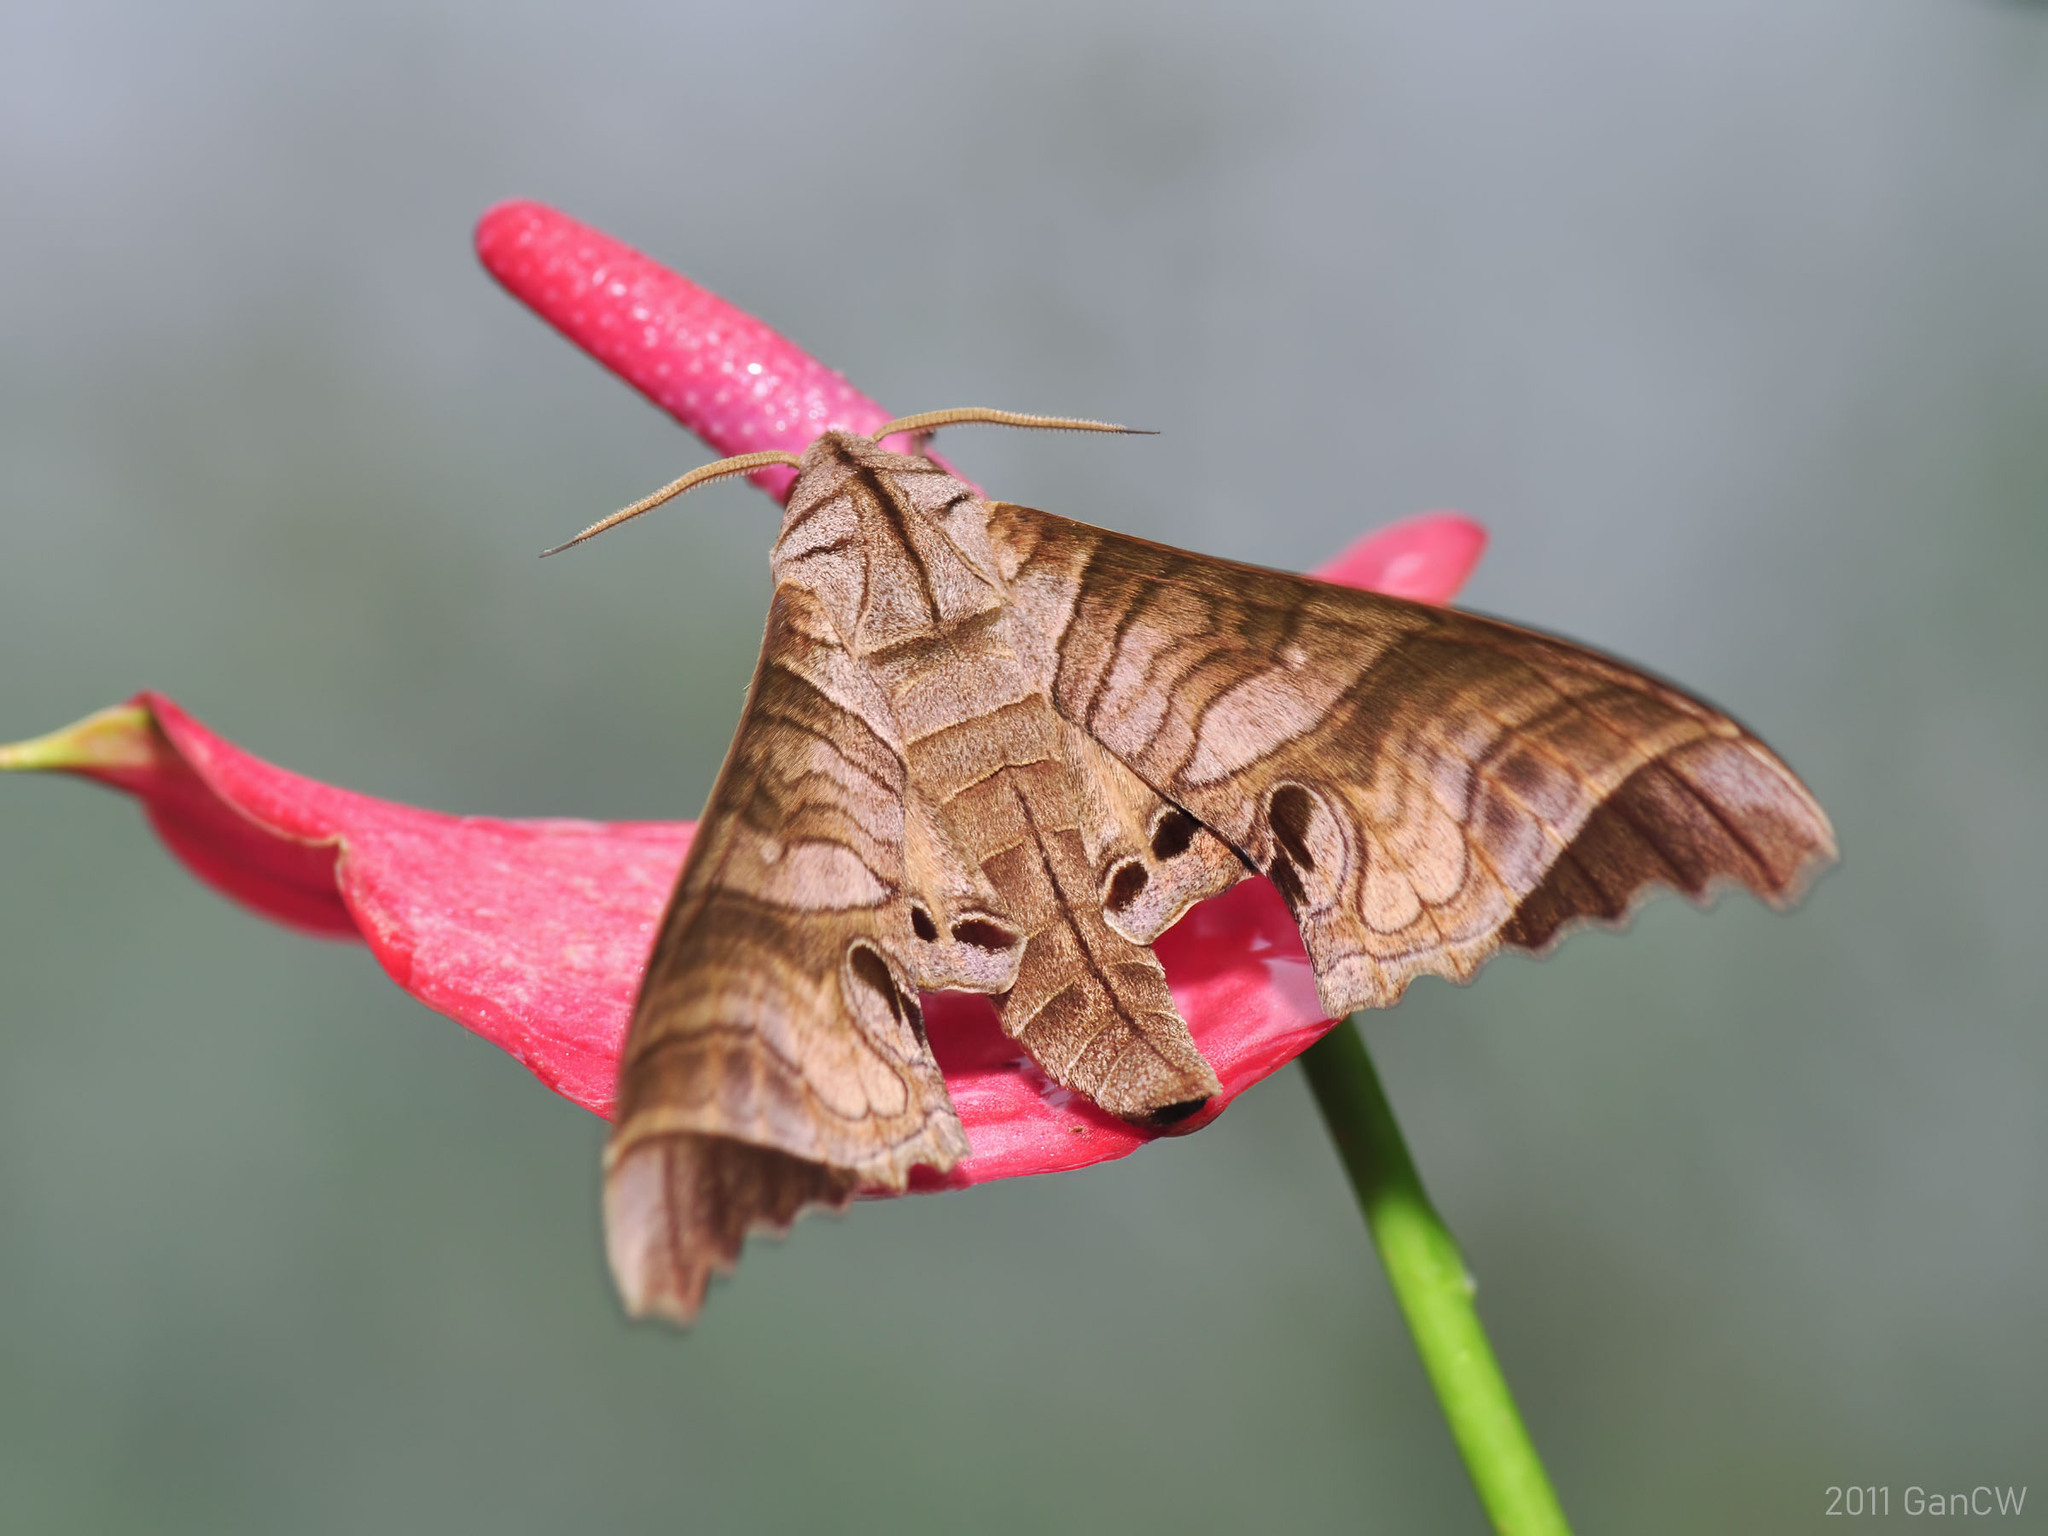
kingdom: Animalia
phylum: Arthropoda
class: Insecta
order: Lepidoptera
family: Sphingidae
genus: Marumba
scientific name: Marumba spectabilis
